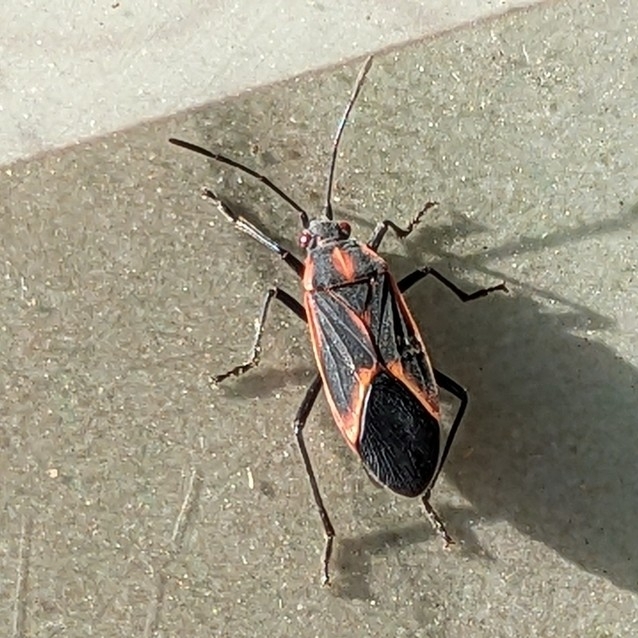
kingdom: Animalia
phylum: Arthropoda
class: Insecta
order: Hemiptera
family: Rhopalidae
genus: Boisea
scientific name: Boisea trivittata
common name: Boxelder bug
